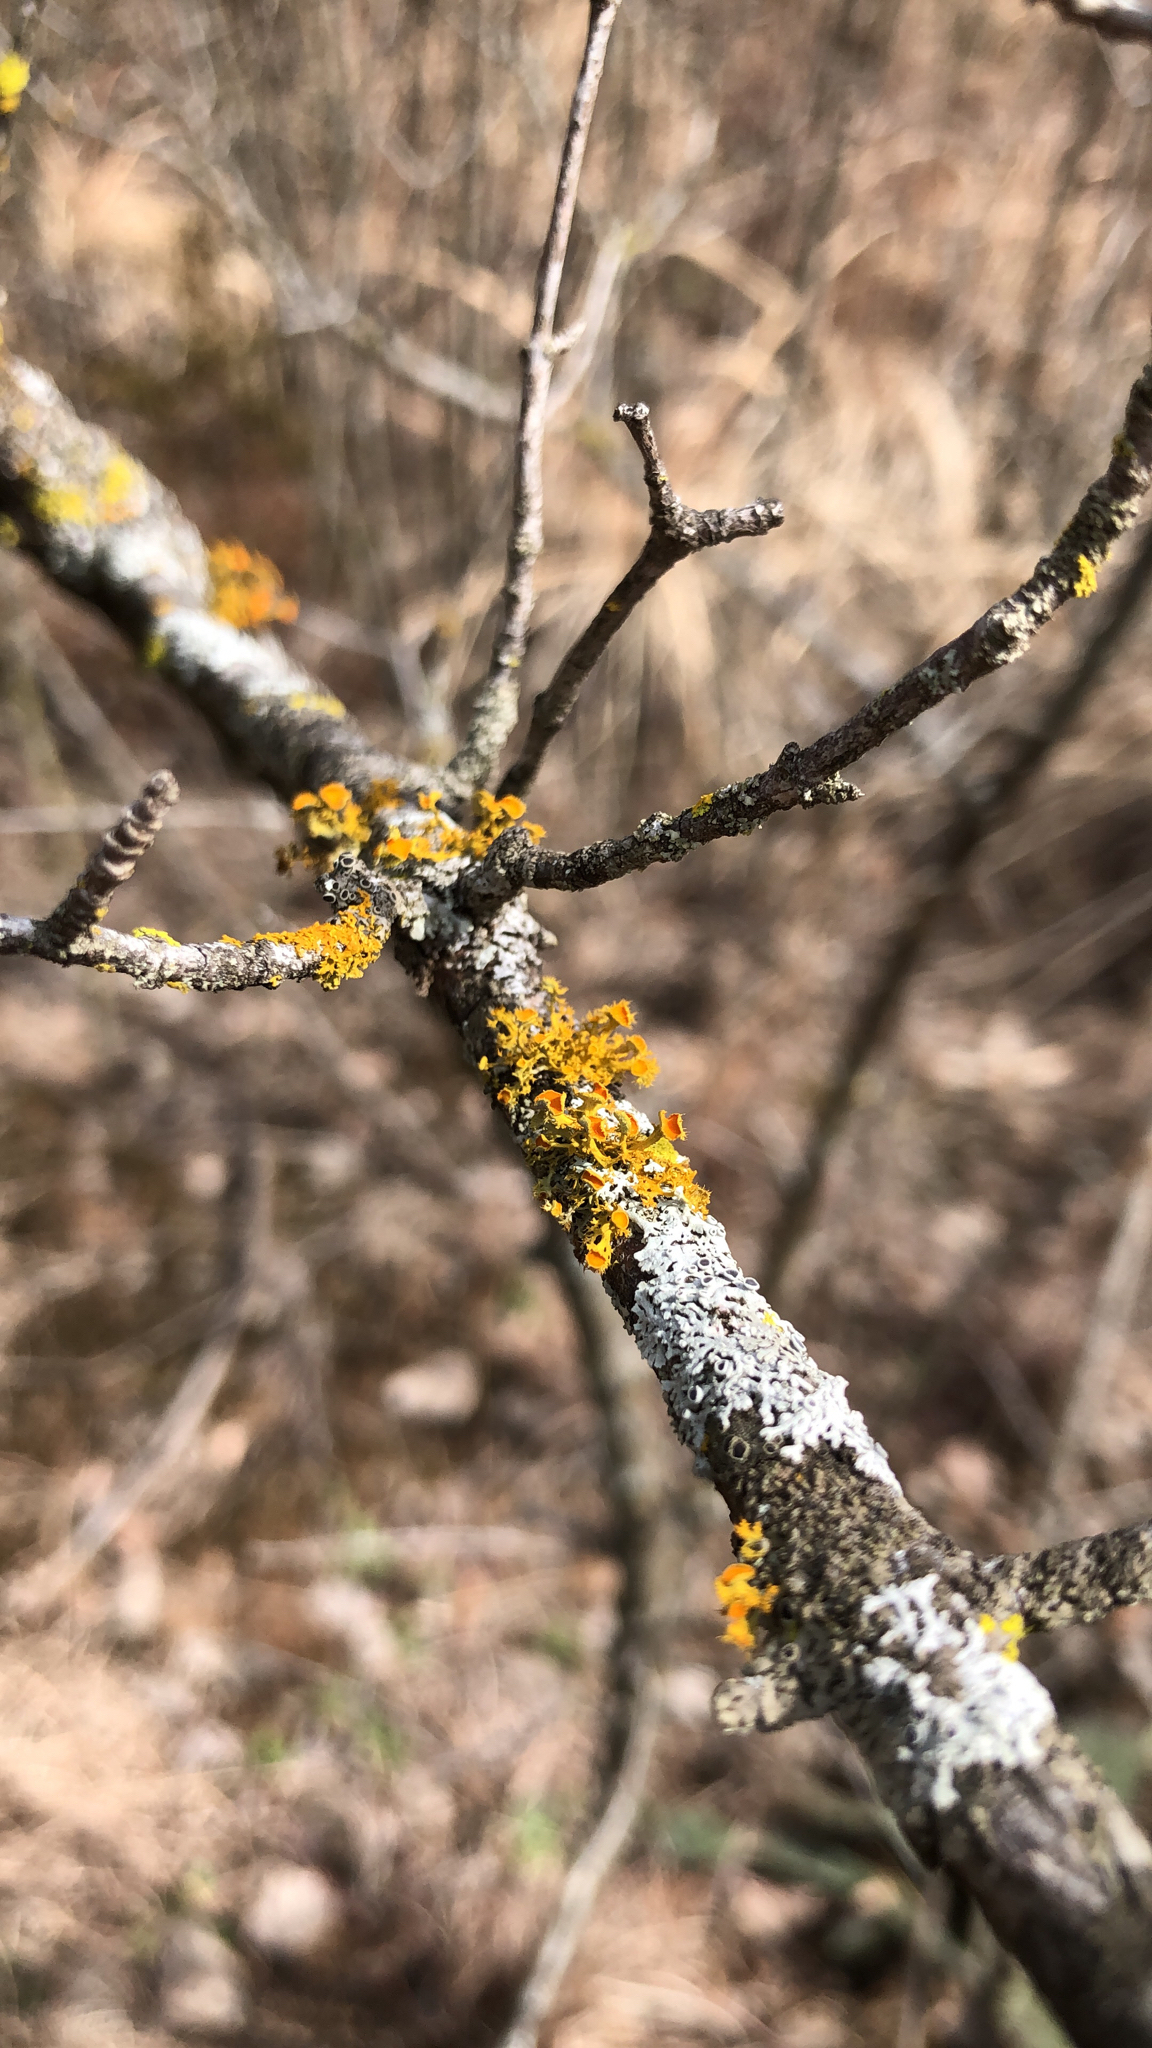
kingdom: Fungi
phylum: Ascomycota
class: Lecanoromycetes
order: Teloschistales
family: Teloschistaceae
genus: Niorma
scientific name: Niorma chrysophthalma
